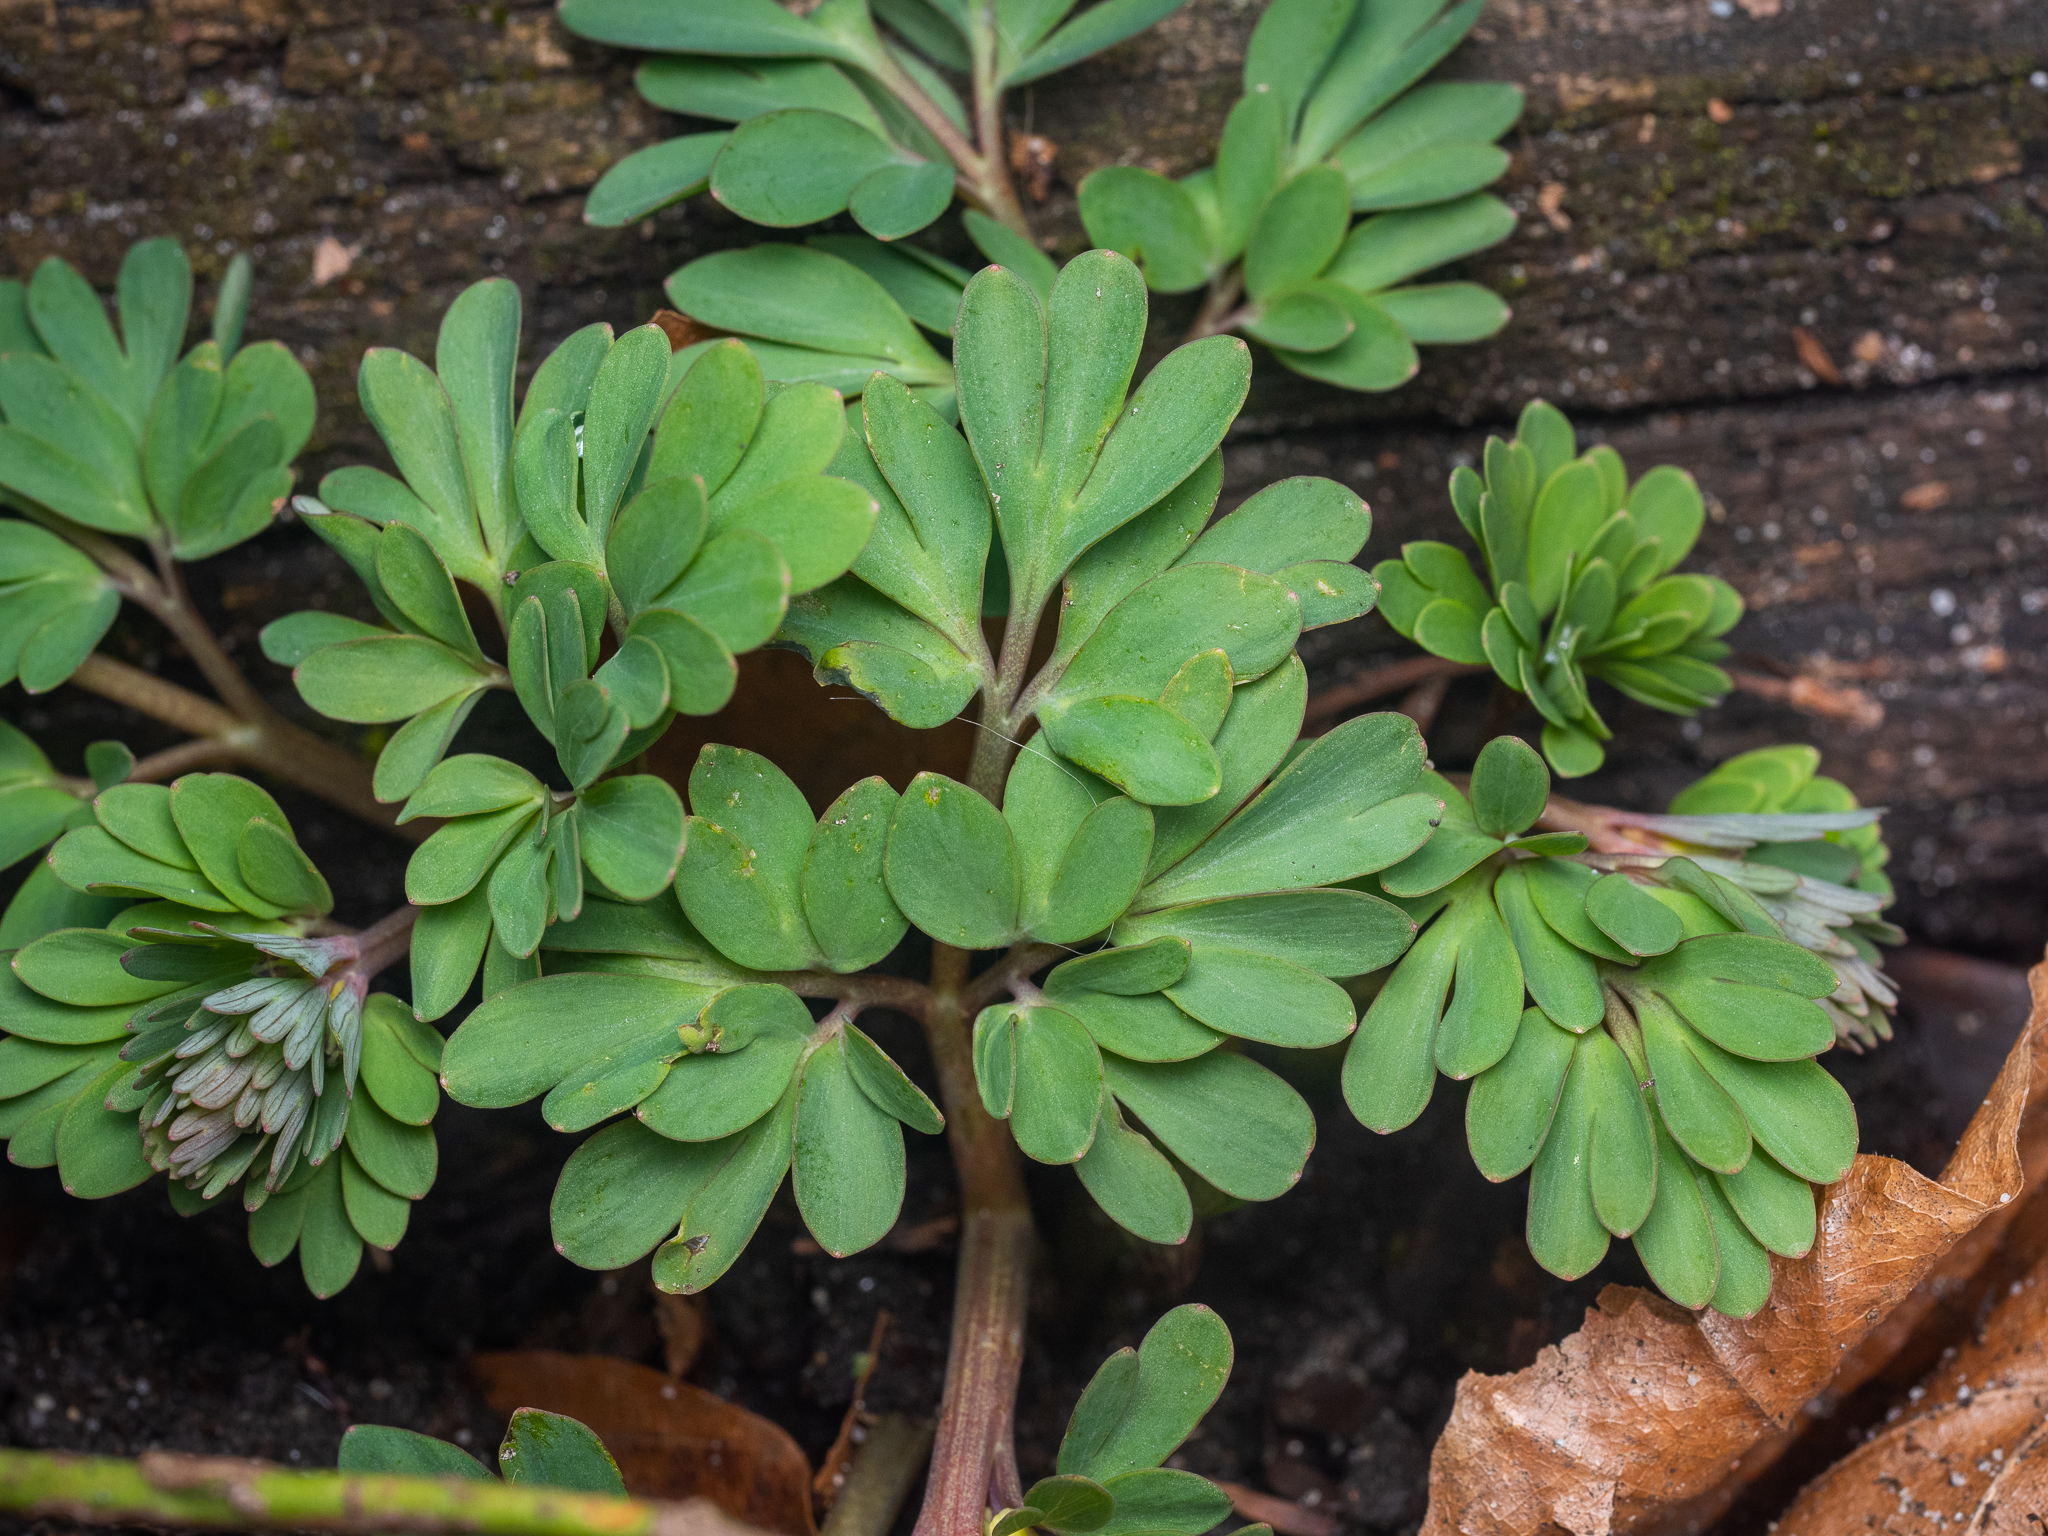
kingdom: Plantae
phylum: Tracheophyta
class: Magnoliopsida
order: Ranunculales
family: Papaveraceae
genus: Corydalis
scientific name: Corydalis solida
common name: Bird-in-a-bush
